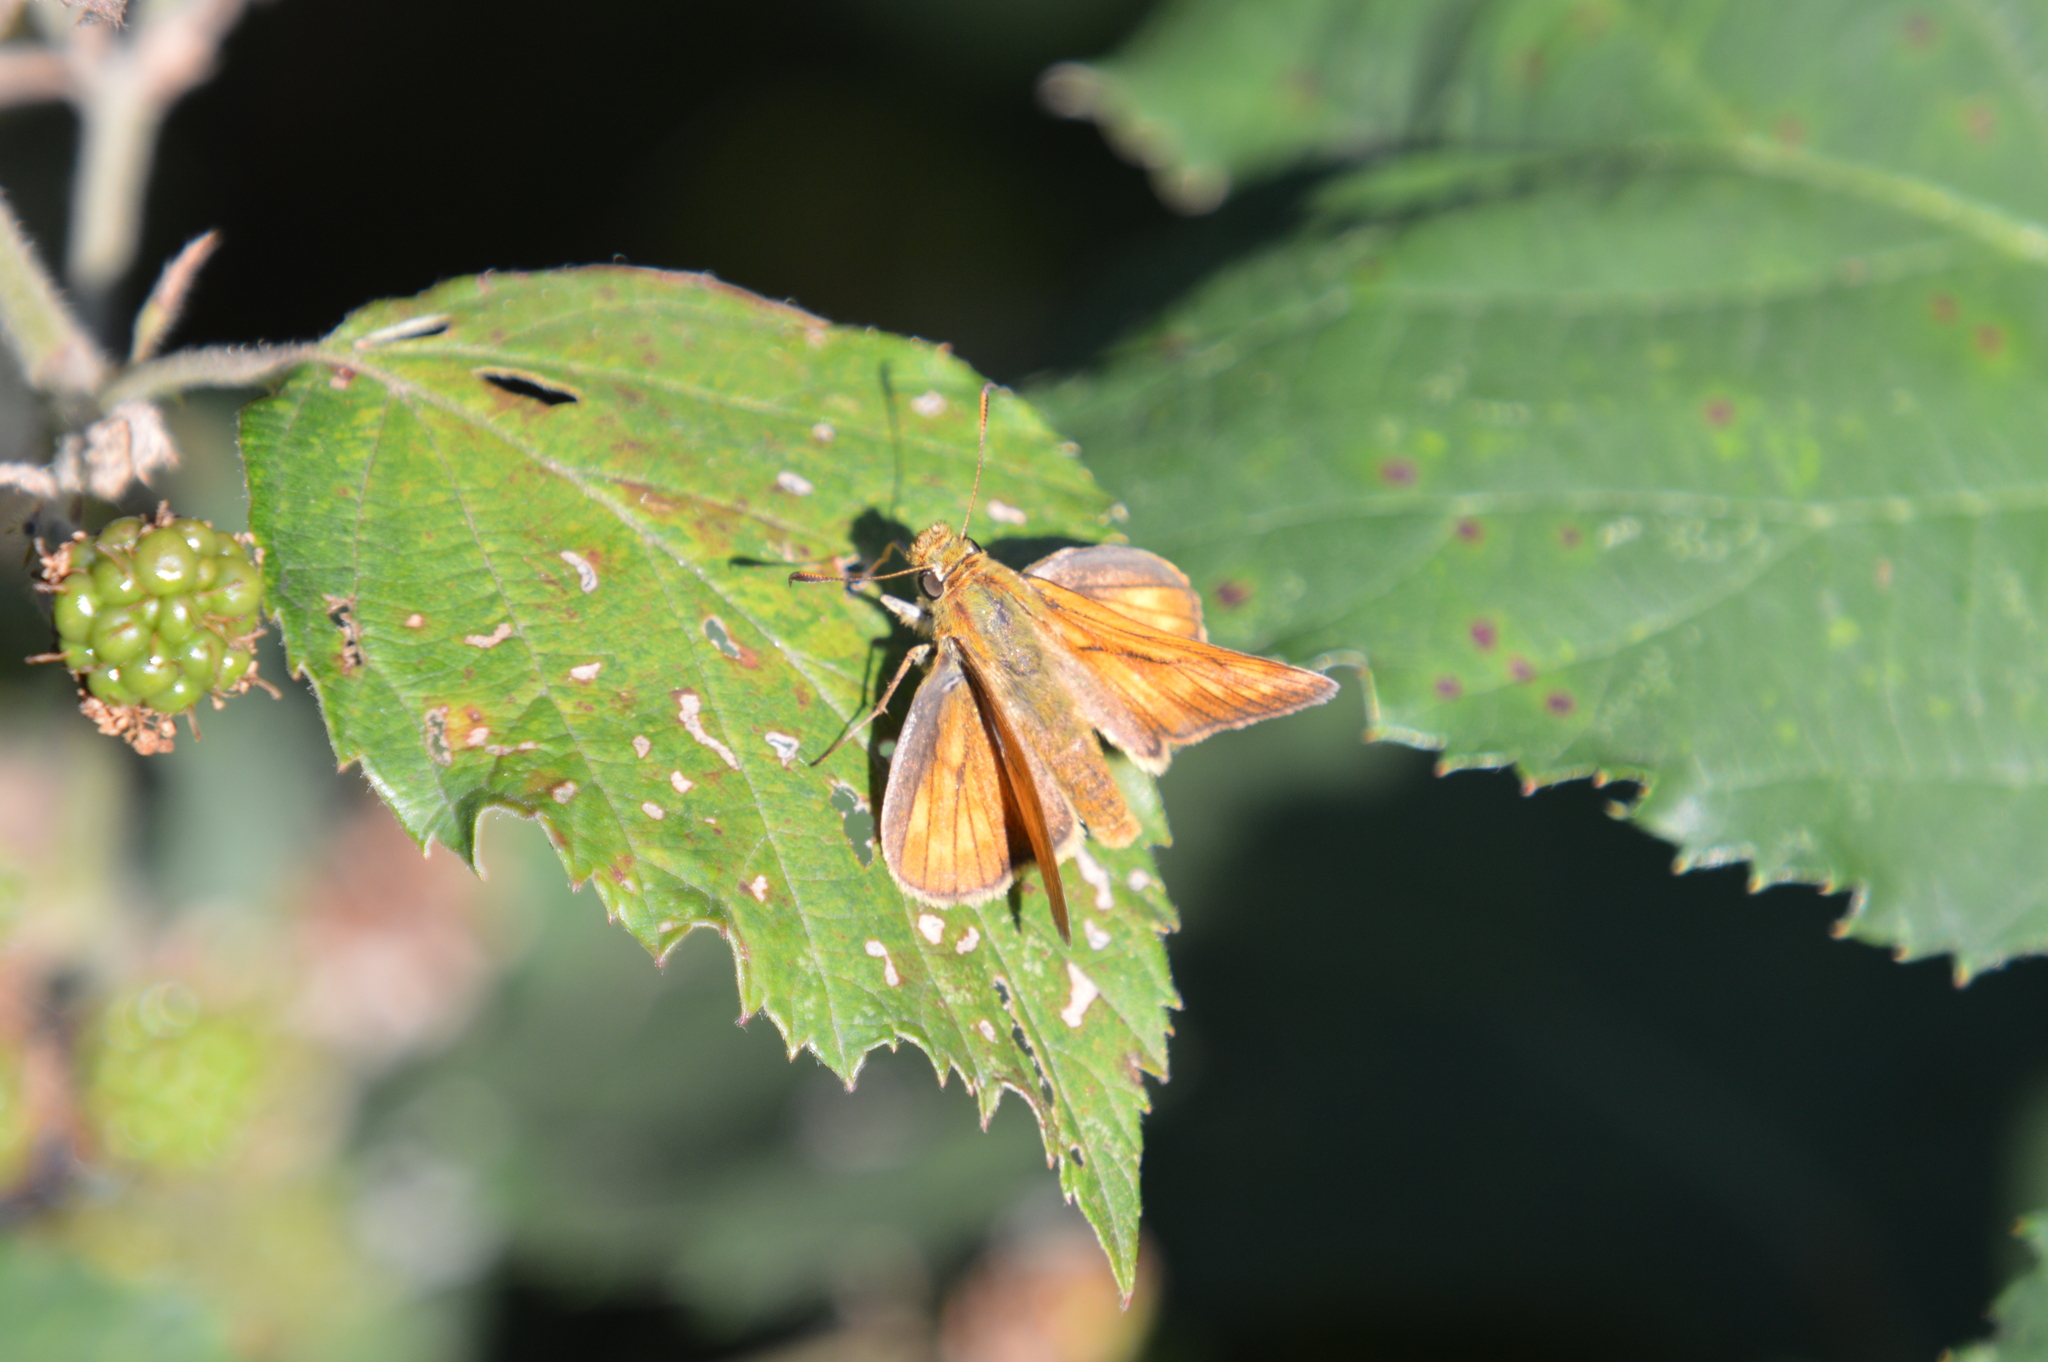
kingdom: Animalia
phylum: Arthropoda
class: Insecta
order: Lepidoptera
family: Hesperiidae
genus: Ochlodes
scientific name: Ochlodes venata
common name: Large skipper
